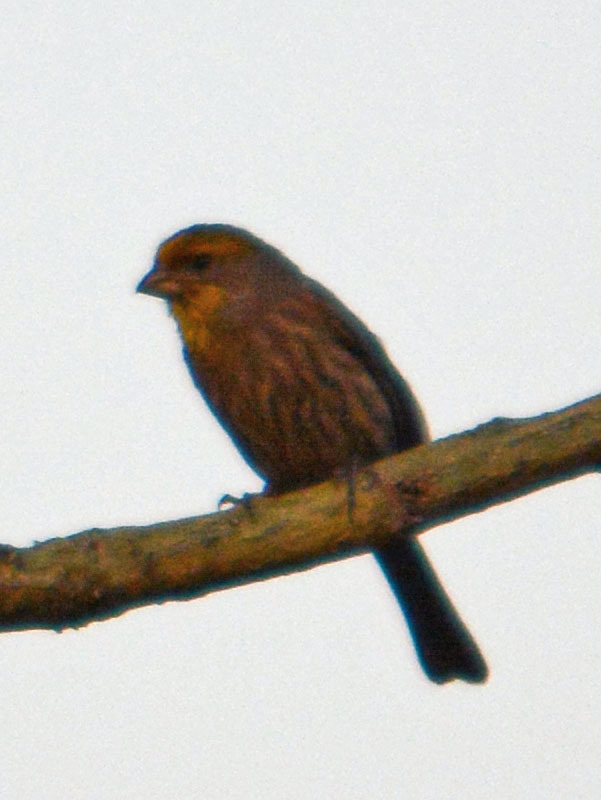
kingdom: Animalia
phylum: Chordata
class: Aves
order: Passeriformes
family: Fringillidae
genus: Haemorhous
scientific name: Haemorhous mexicanus
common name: House finch
